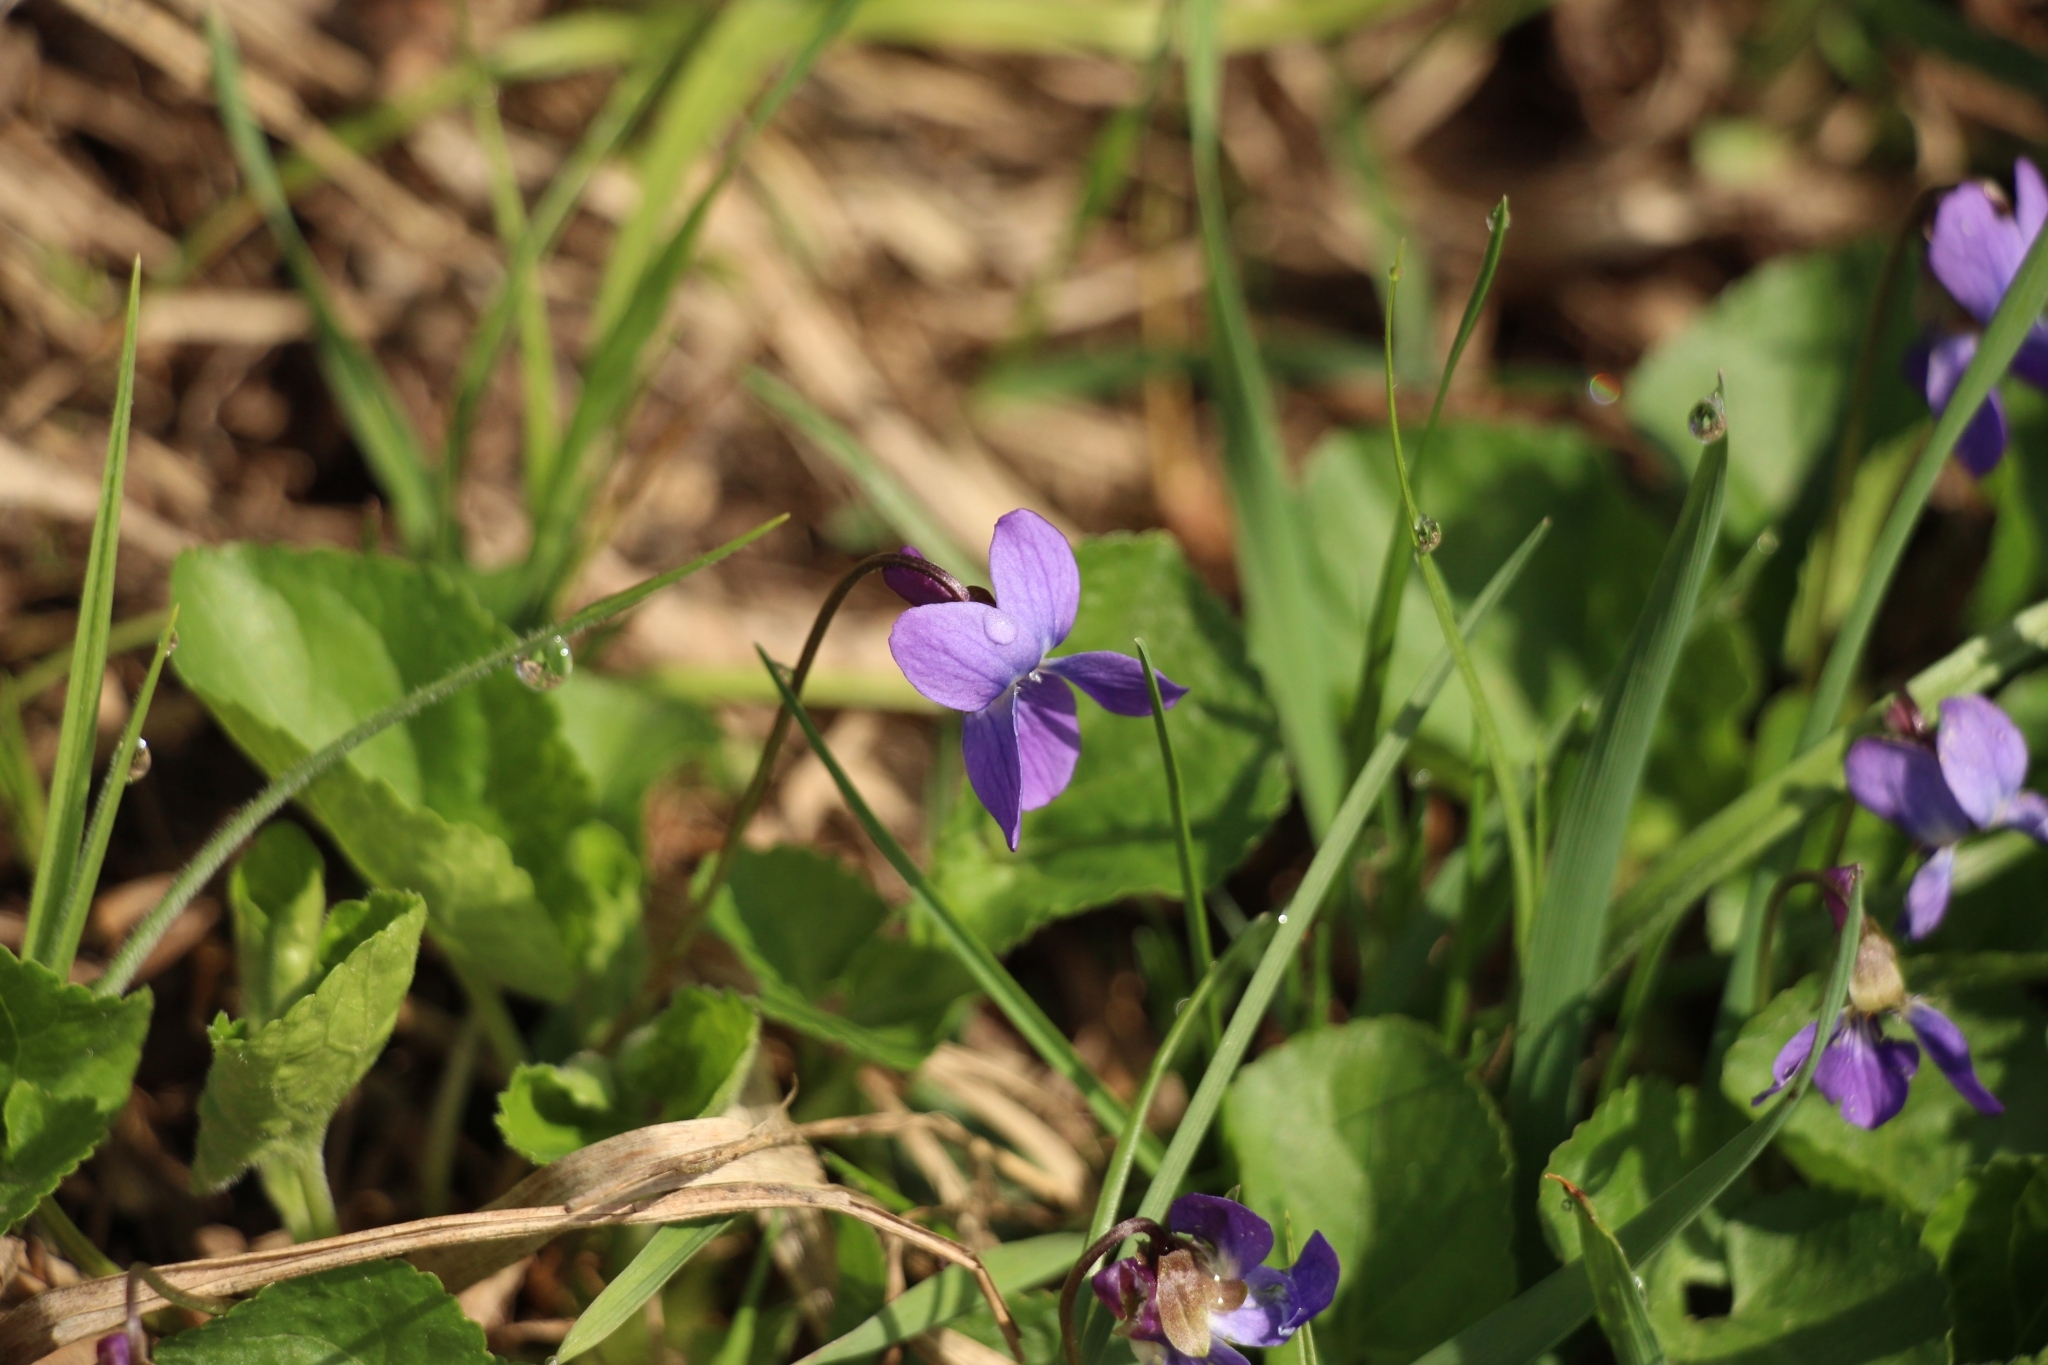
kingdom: Plantae
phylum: Tracheophyta
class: Magnoliopsida
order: Malpighiales
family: Violaceae
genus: Viola
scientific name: Viola odorata
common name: Sweet violet
